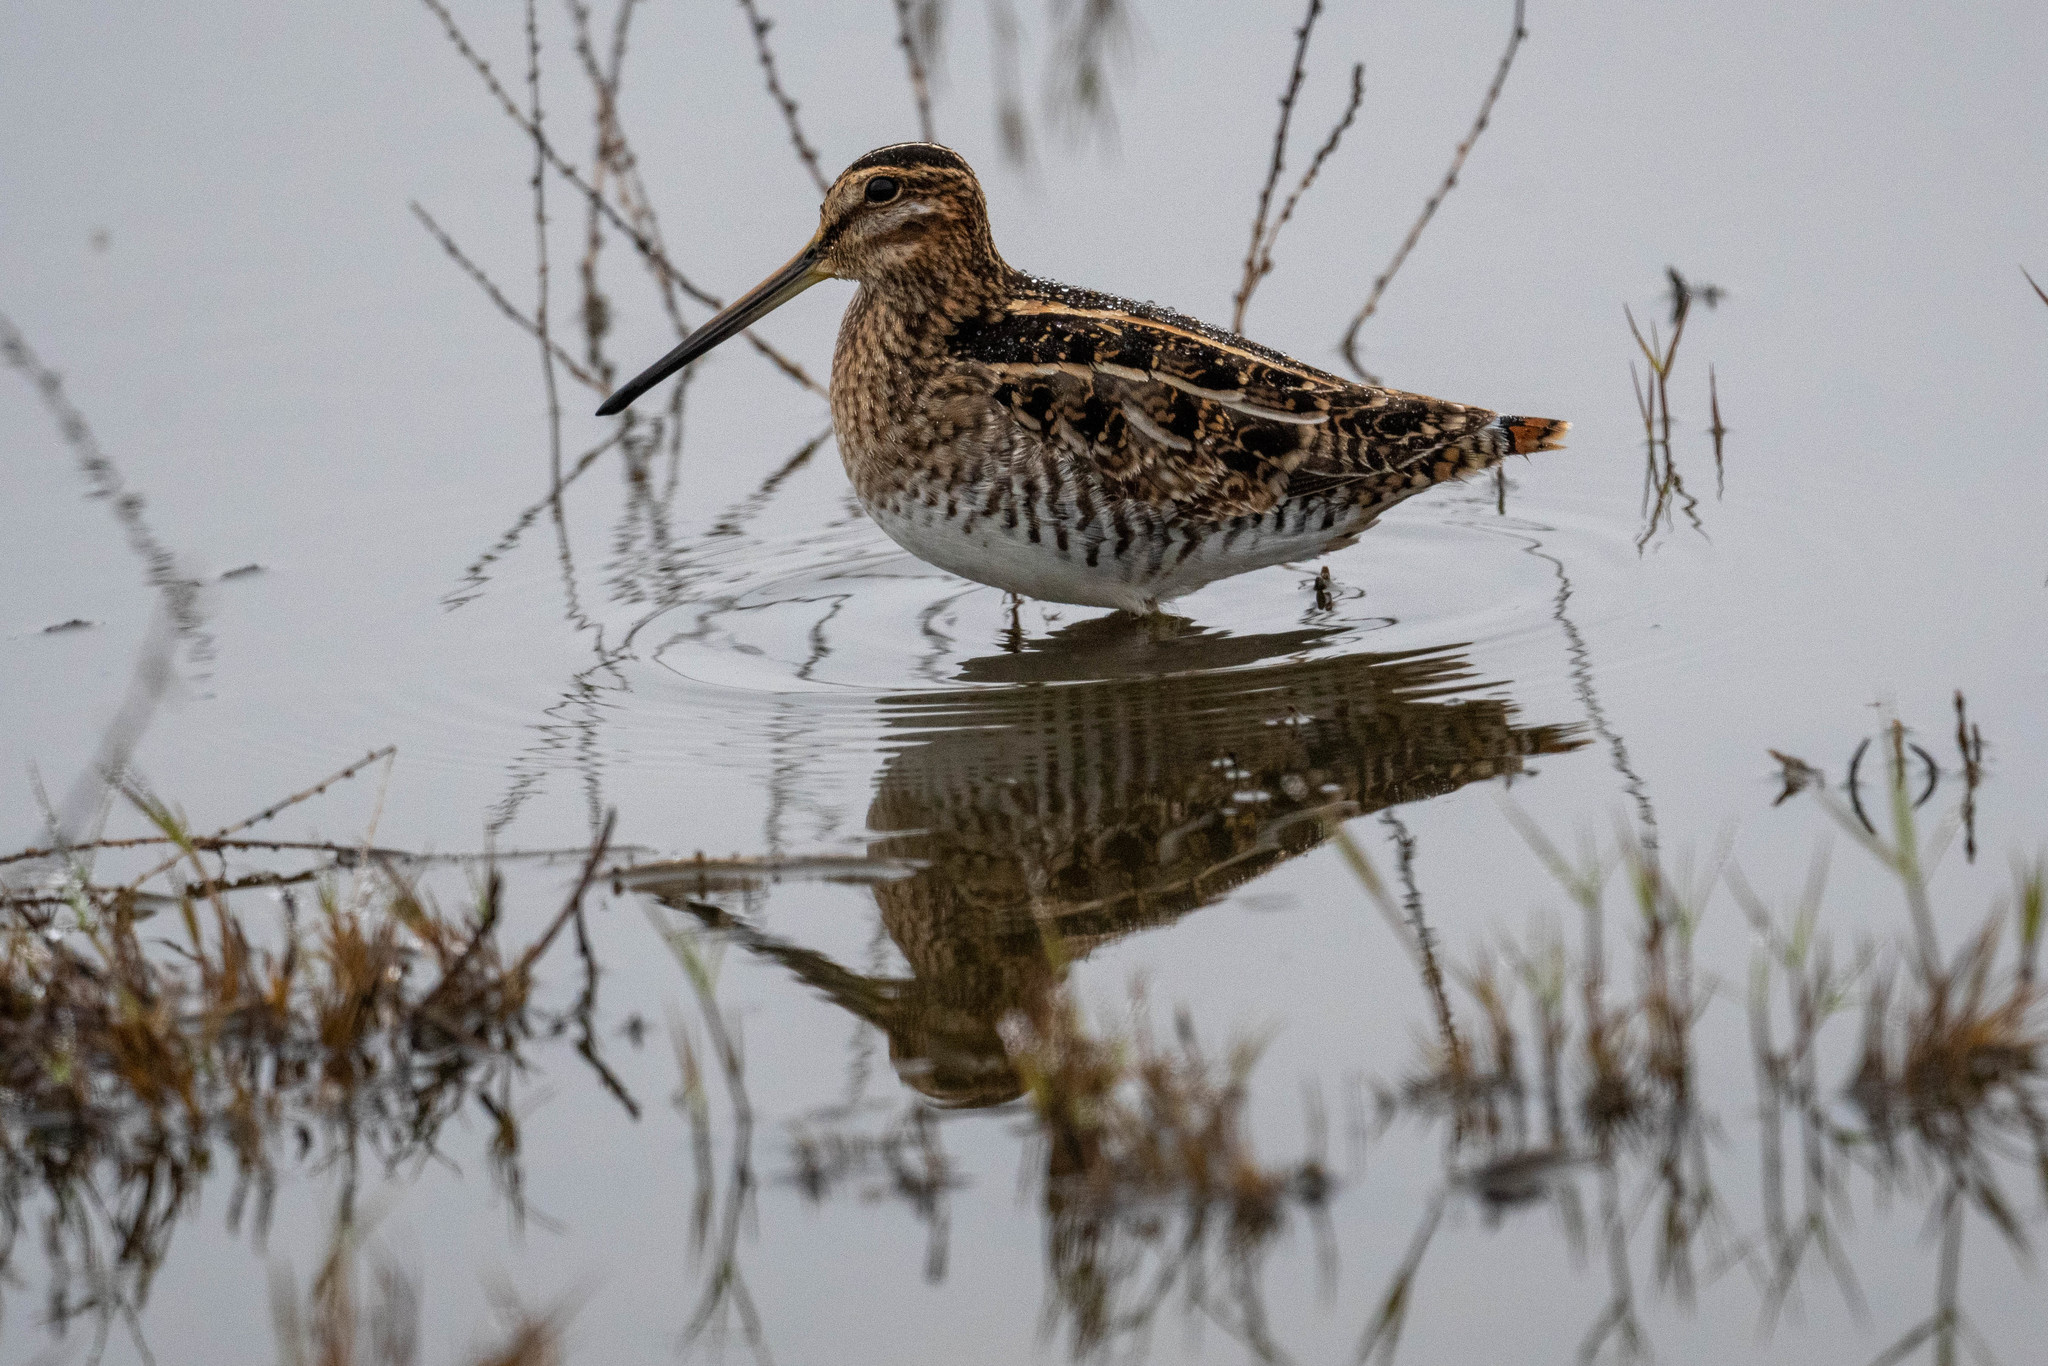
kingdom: Animalia
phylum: Chordata
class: Aves
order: Charadriiformes
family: Scolopacidae
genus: Gallinago
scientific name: Gallinago delicata
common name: Wilson's snipe
